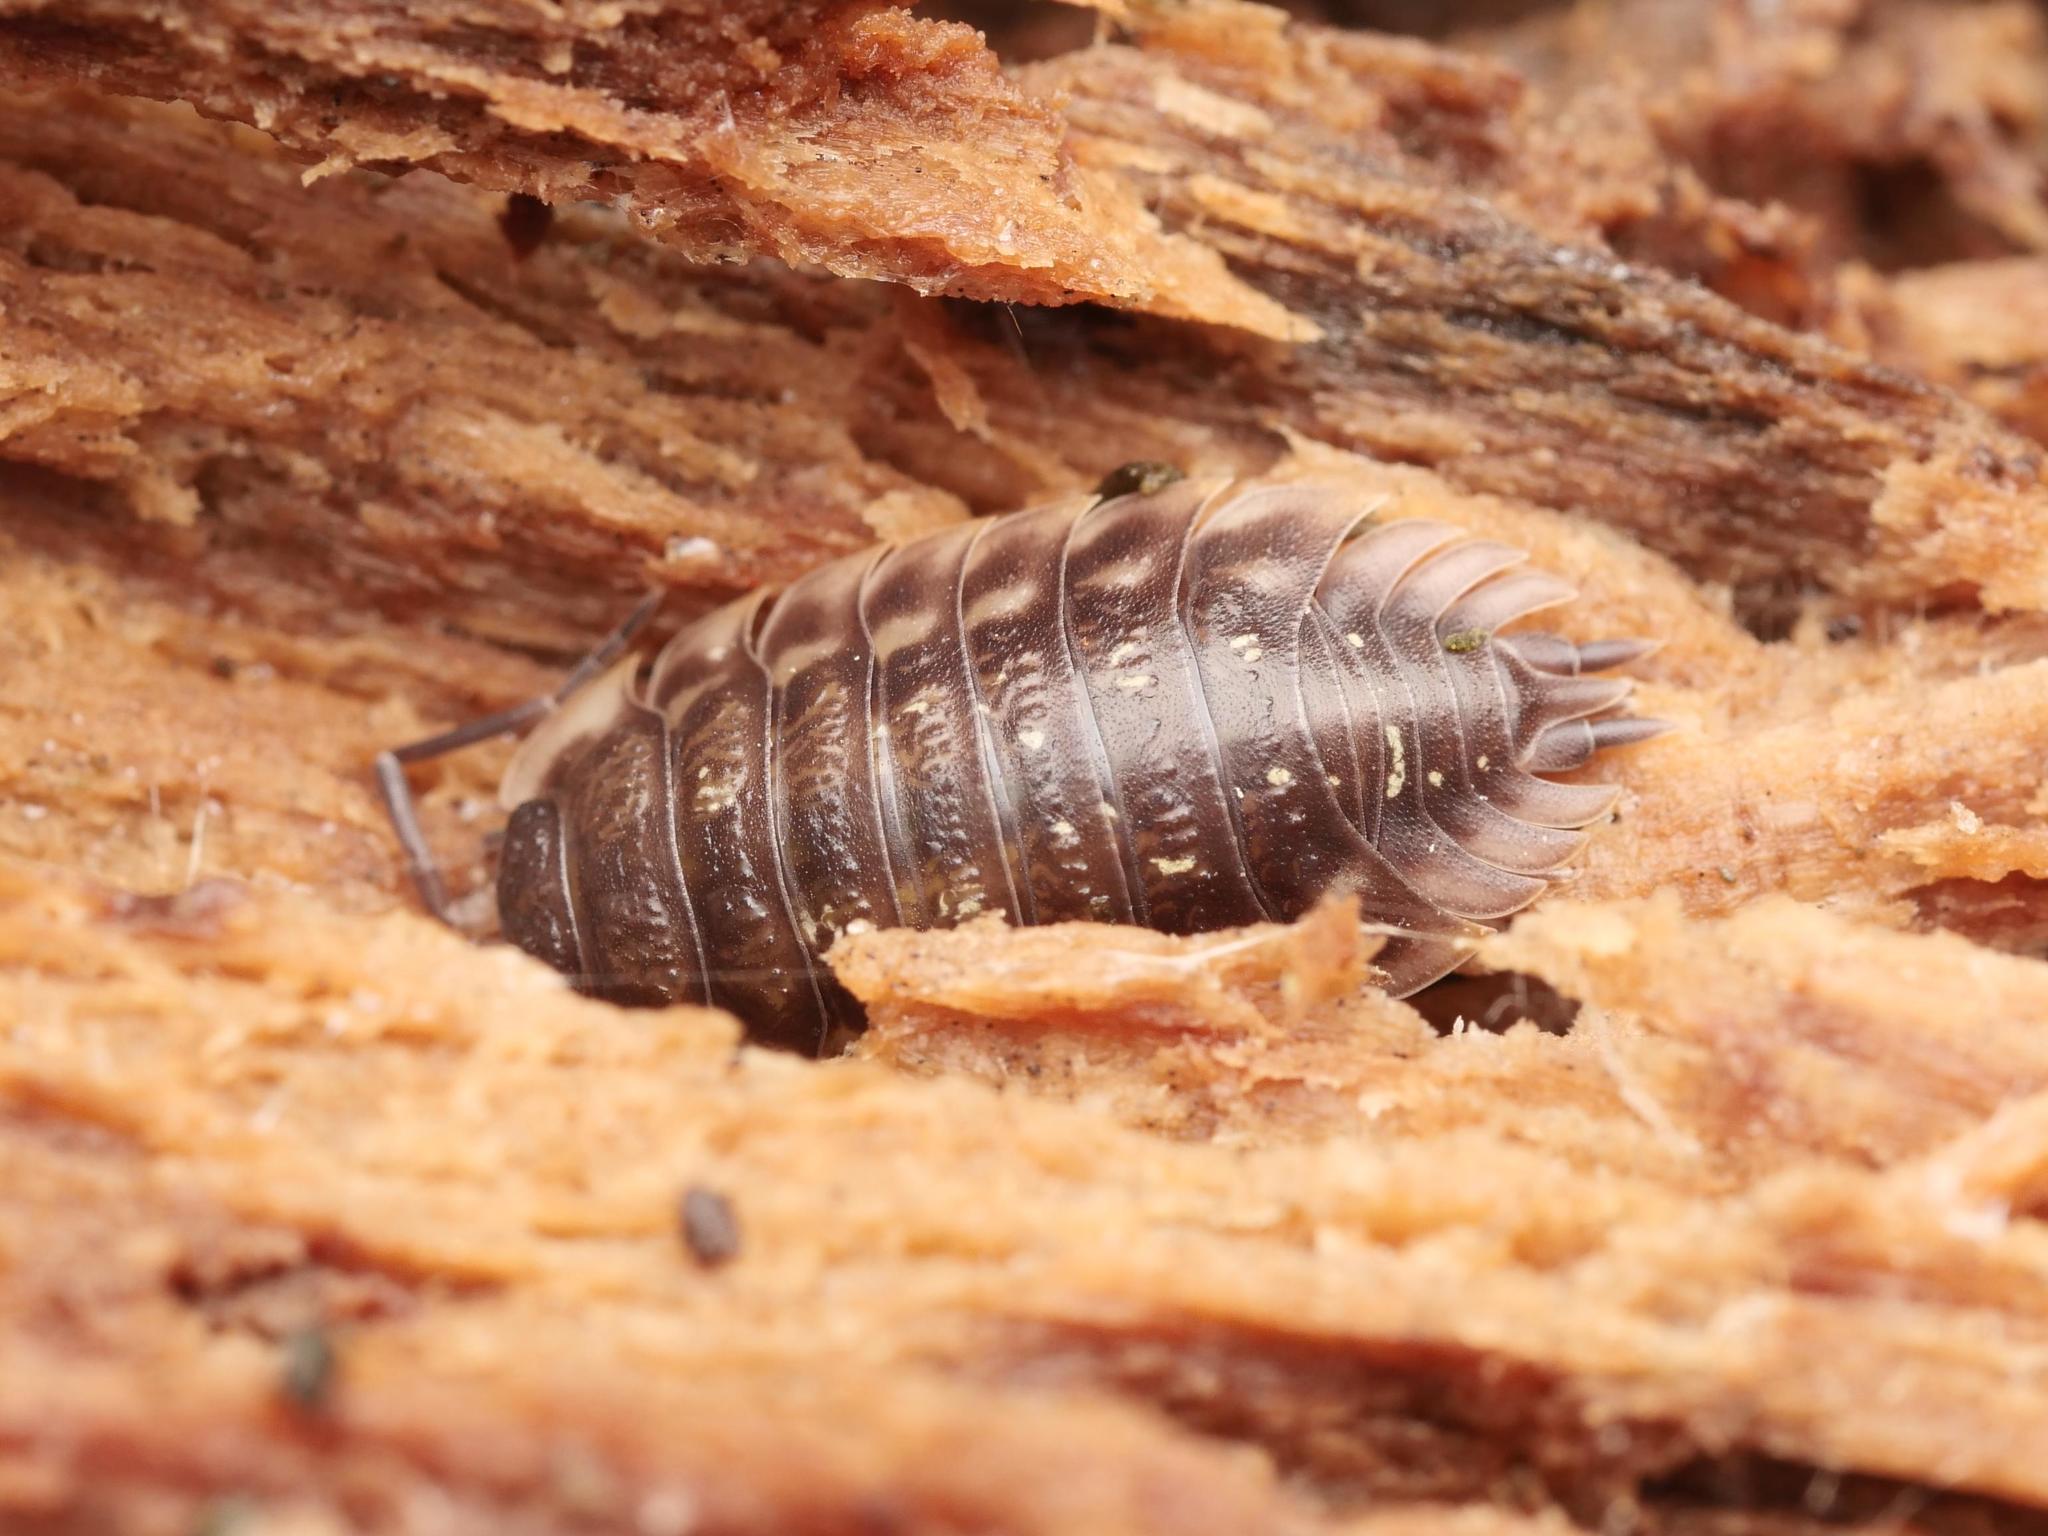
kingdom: Animalia
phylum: Arthropoda
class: Malacostraca
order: Isopoda
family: Oniscidae
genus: Oniscus
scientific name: Oniscus asellus
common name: Common shiny woodlouse
